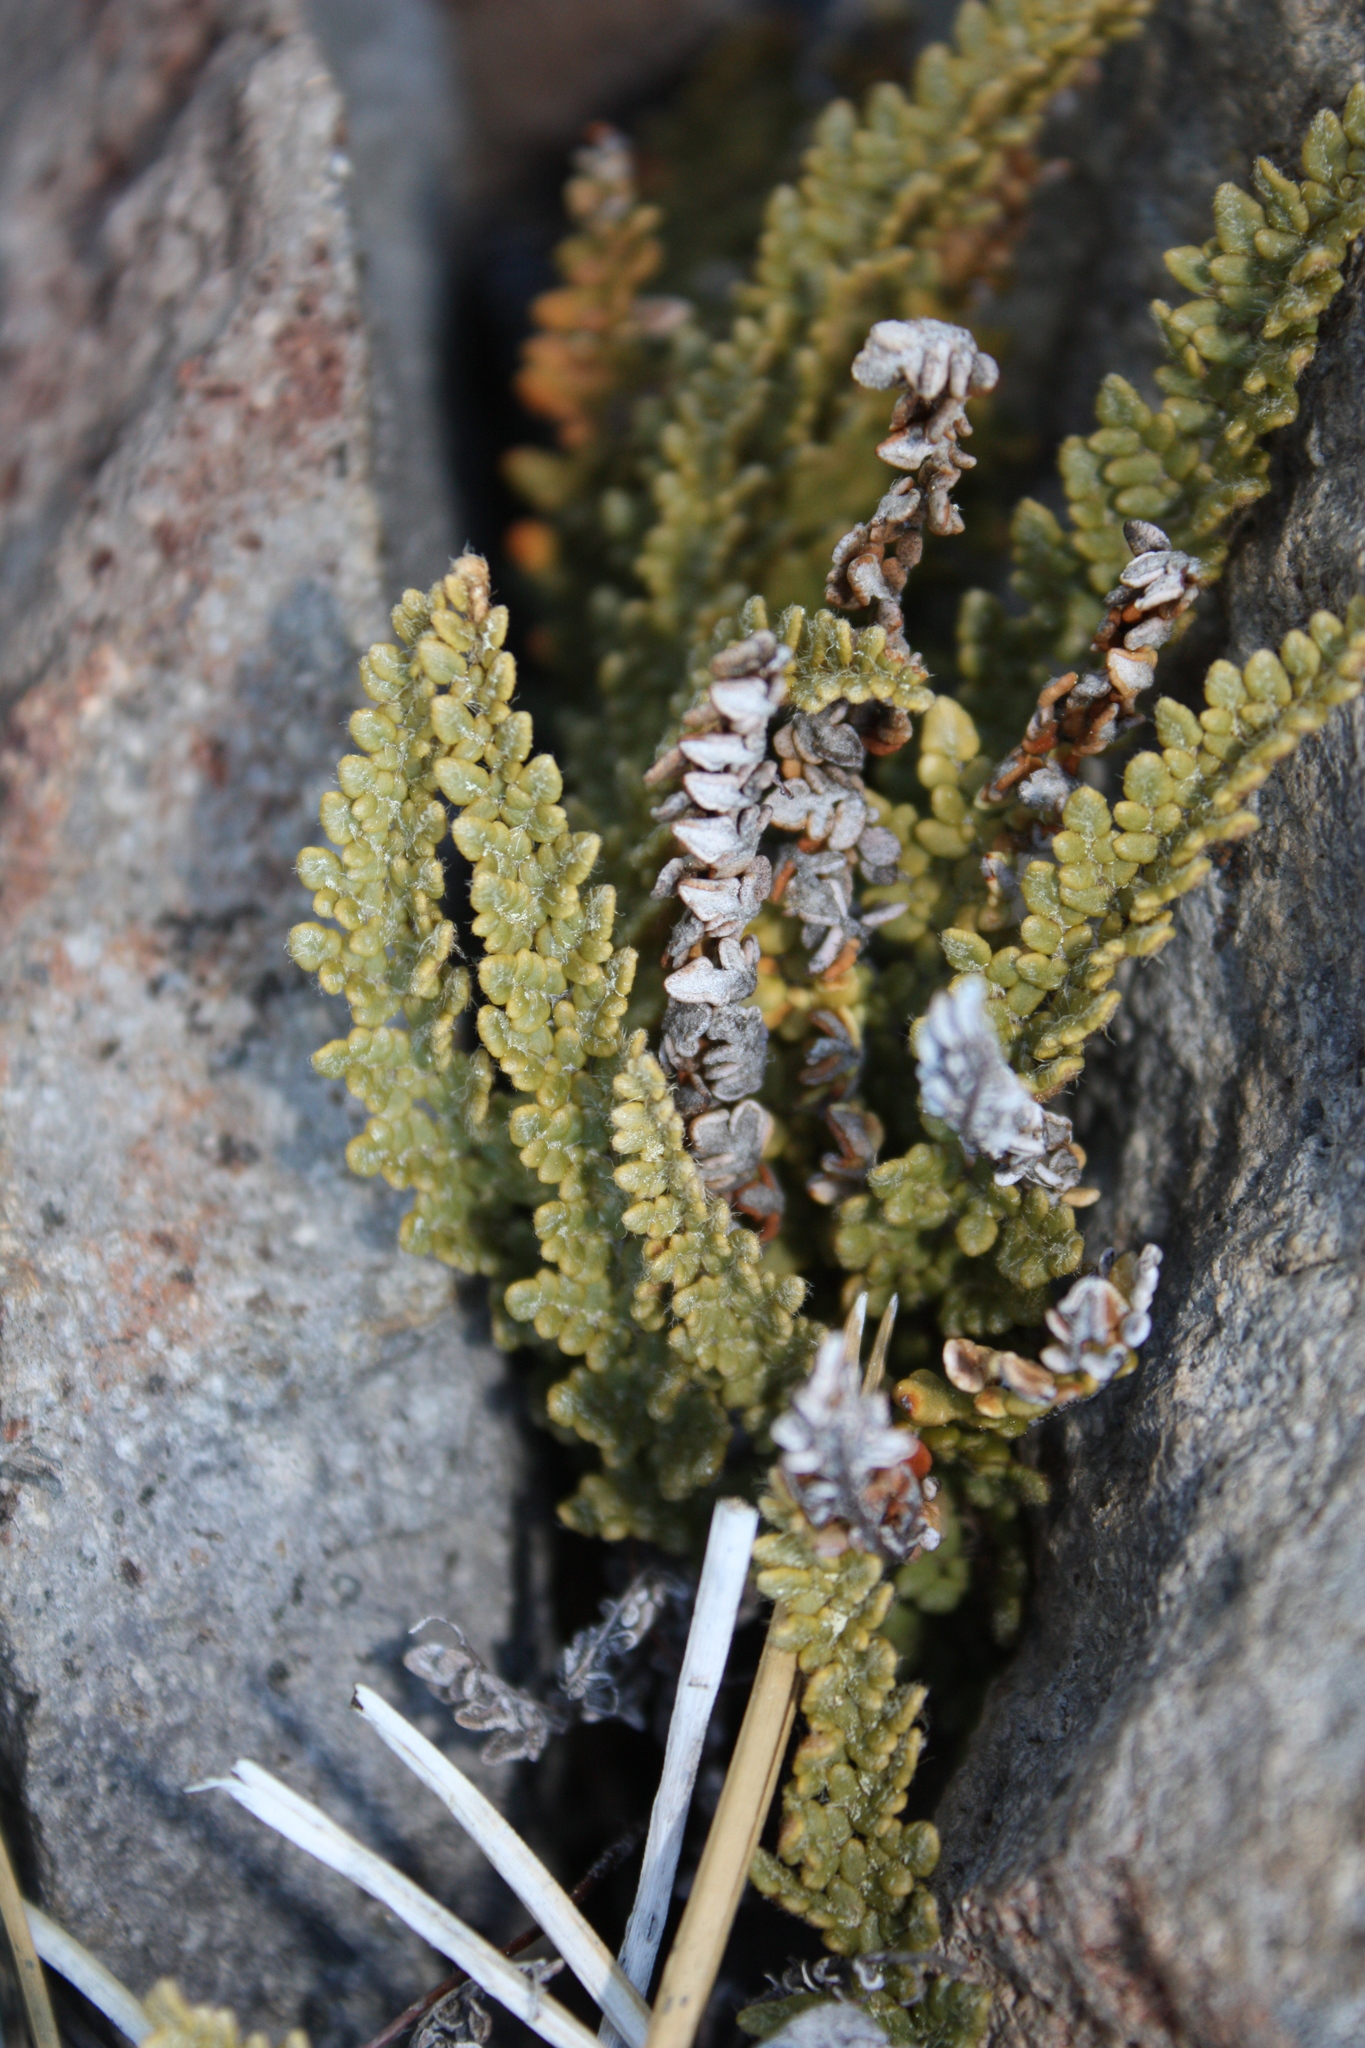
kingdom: Plantae
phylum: Tracheophyta
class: Polypodiopsida
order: Polypodiales
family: Pteridaceae
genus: Myriopteris
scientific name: Myriopteris gracillima
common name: Lace fern
